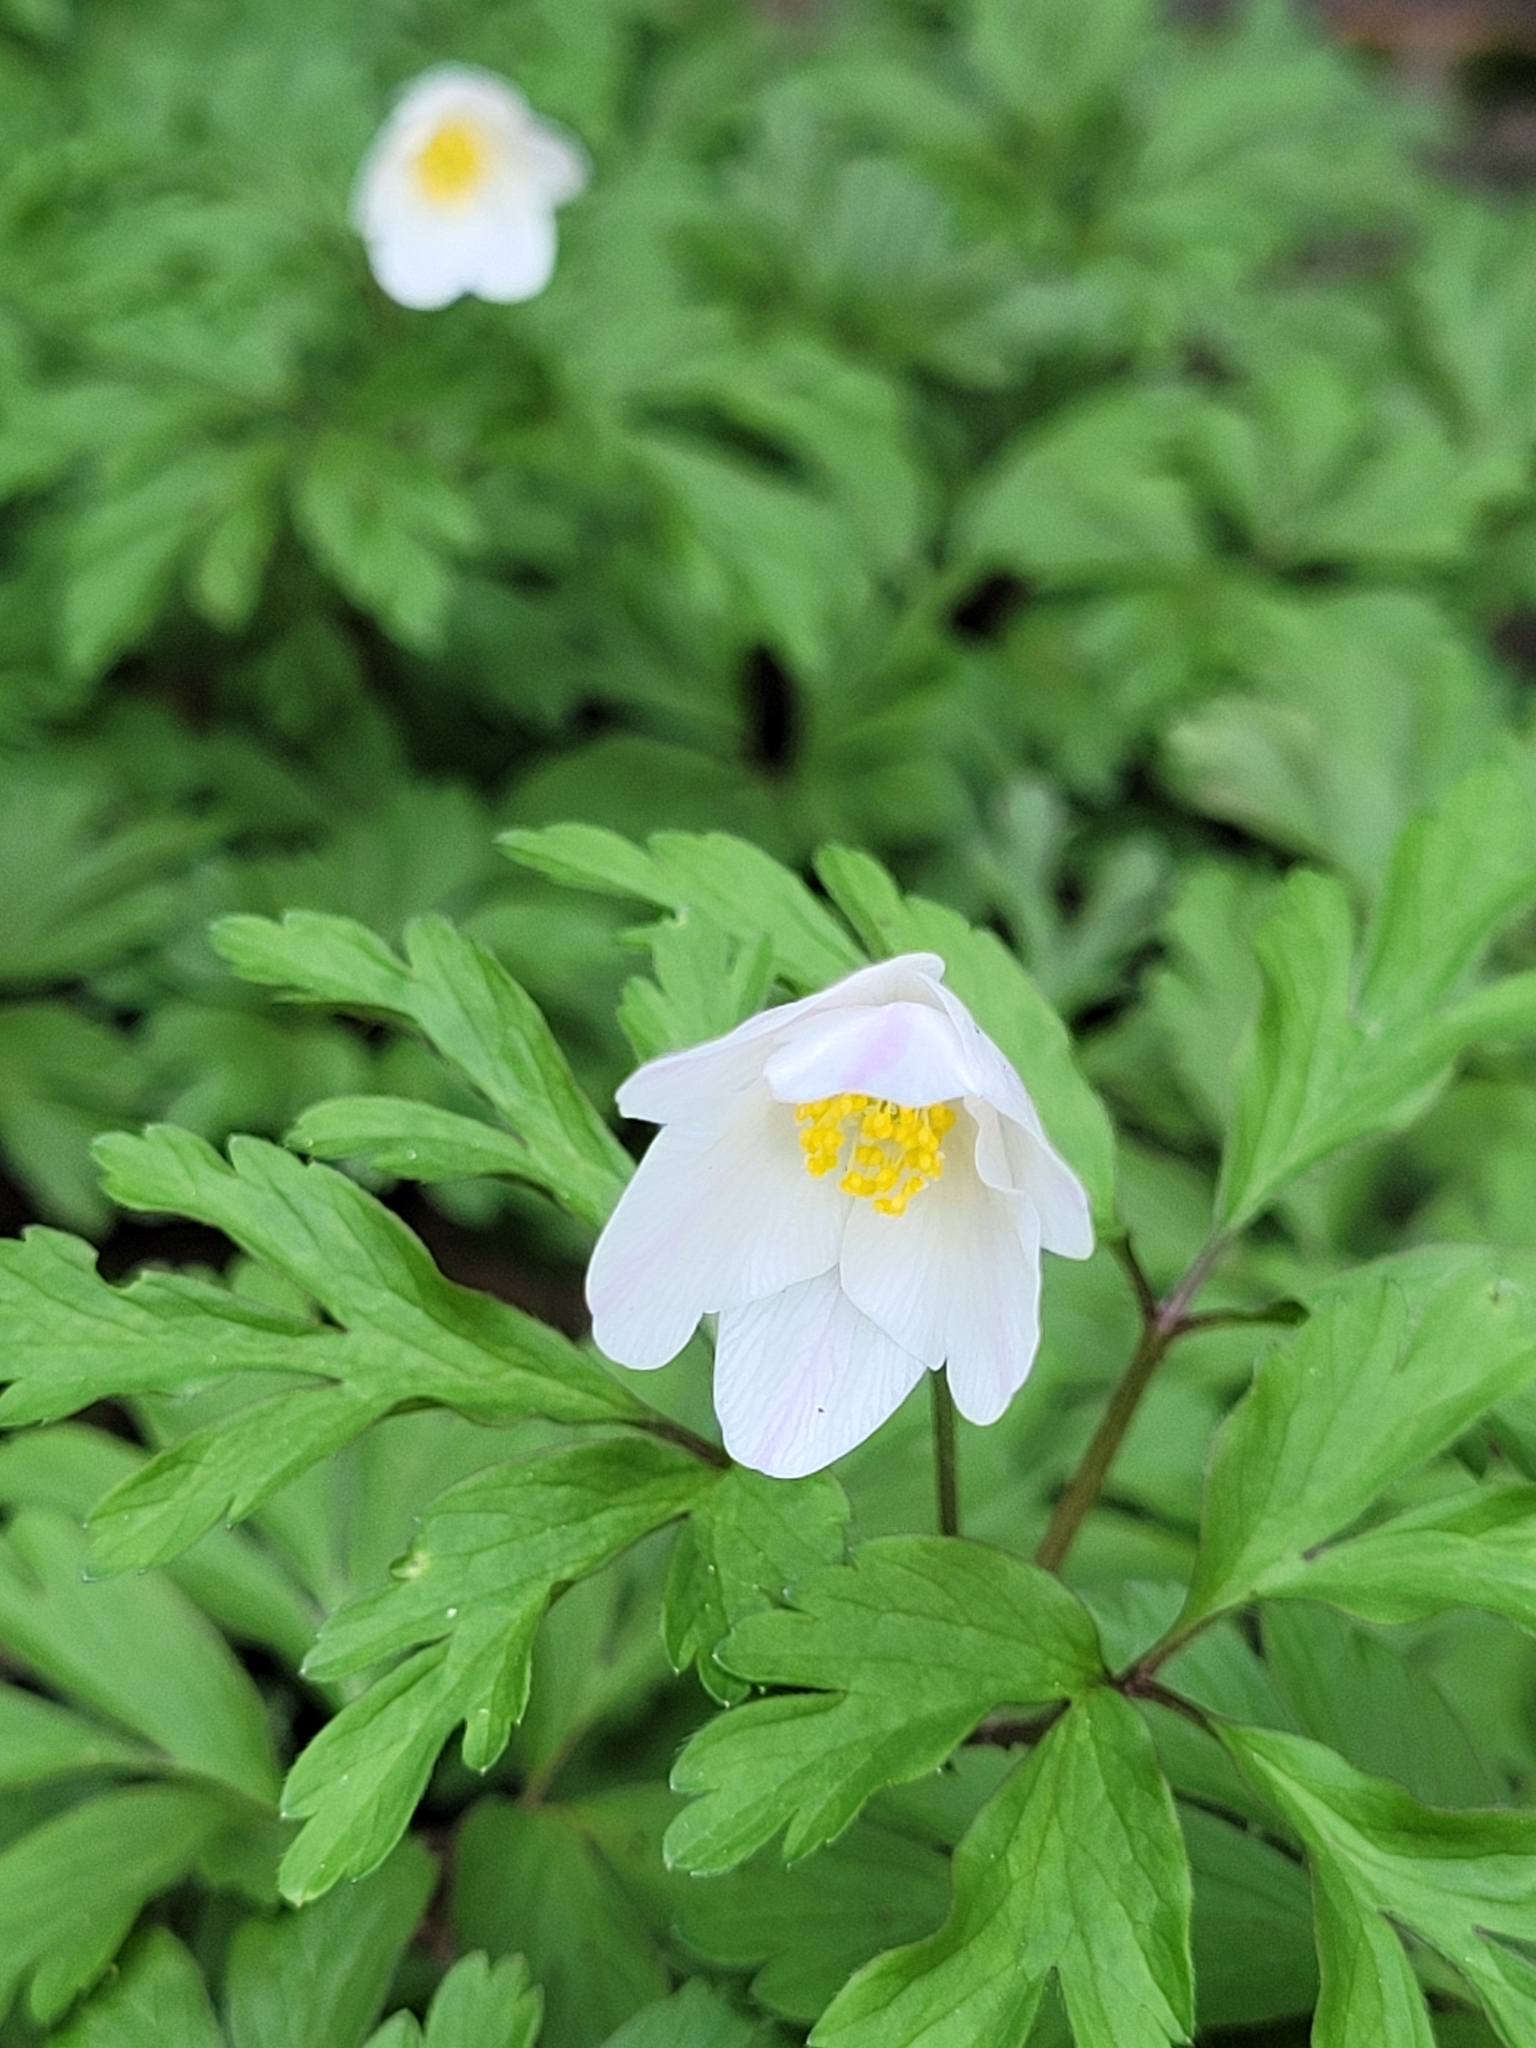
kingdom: Plantae
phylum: Tracheophyta
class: Magnoliopsida
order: Ranunculales
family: Ranunculaceae
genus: Anemone
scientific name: Anemone nemorosa
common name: Wood anemone
